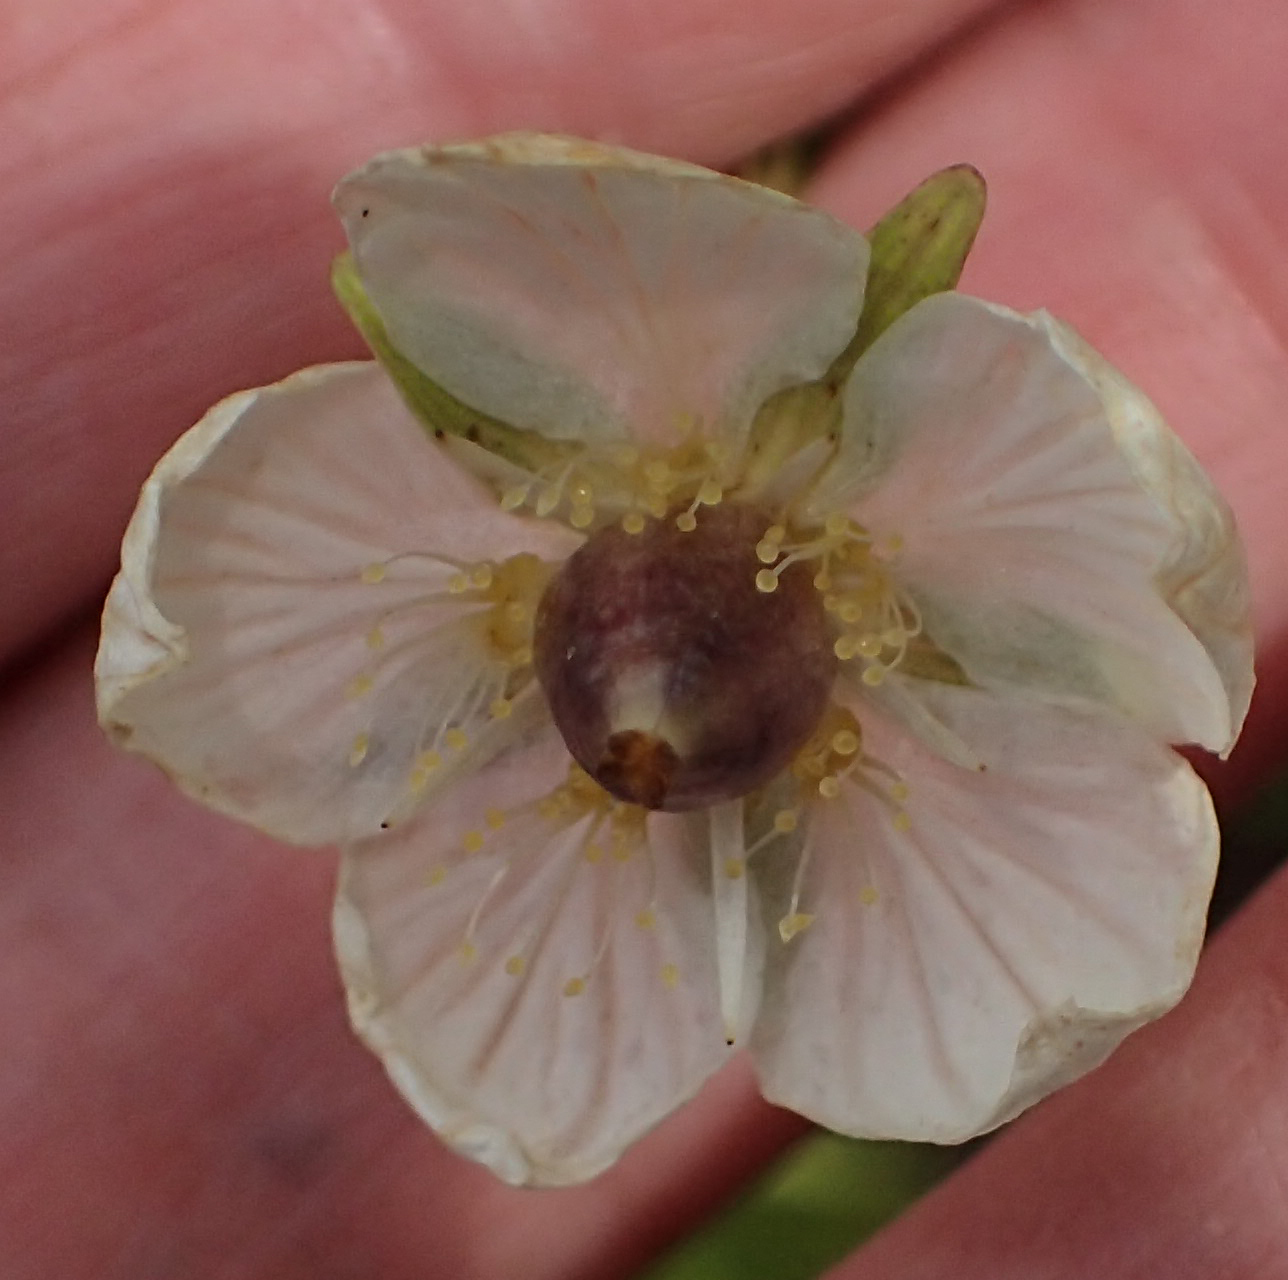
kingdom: Plantae
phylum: Tracheophyta
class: Magnoliopsida
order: Celastrales
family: Parnassiaceae
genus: Parnassia
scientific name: Parnassia palustris
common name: Grass-of-parnassus
